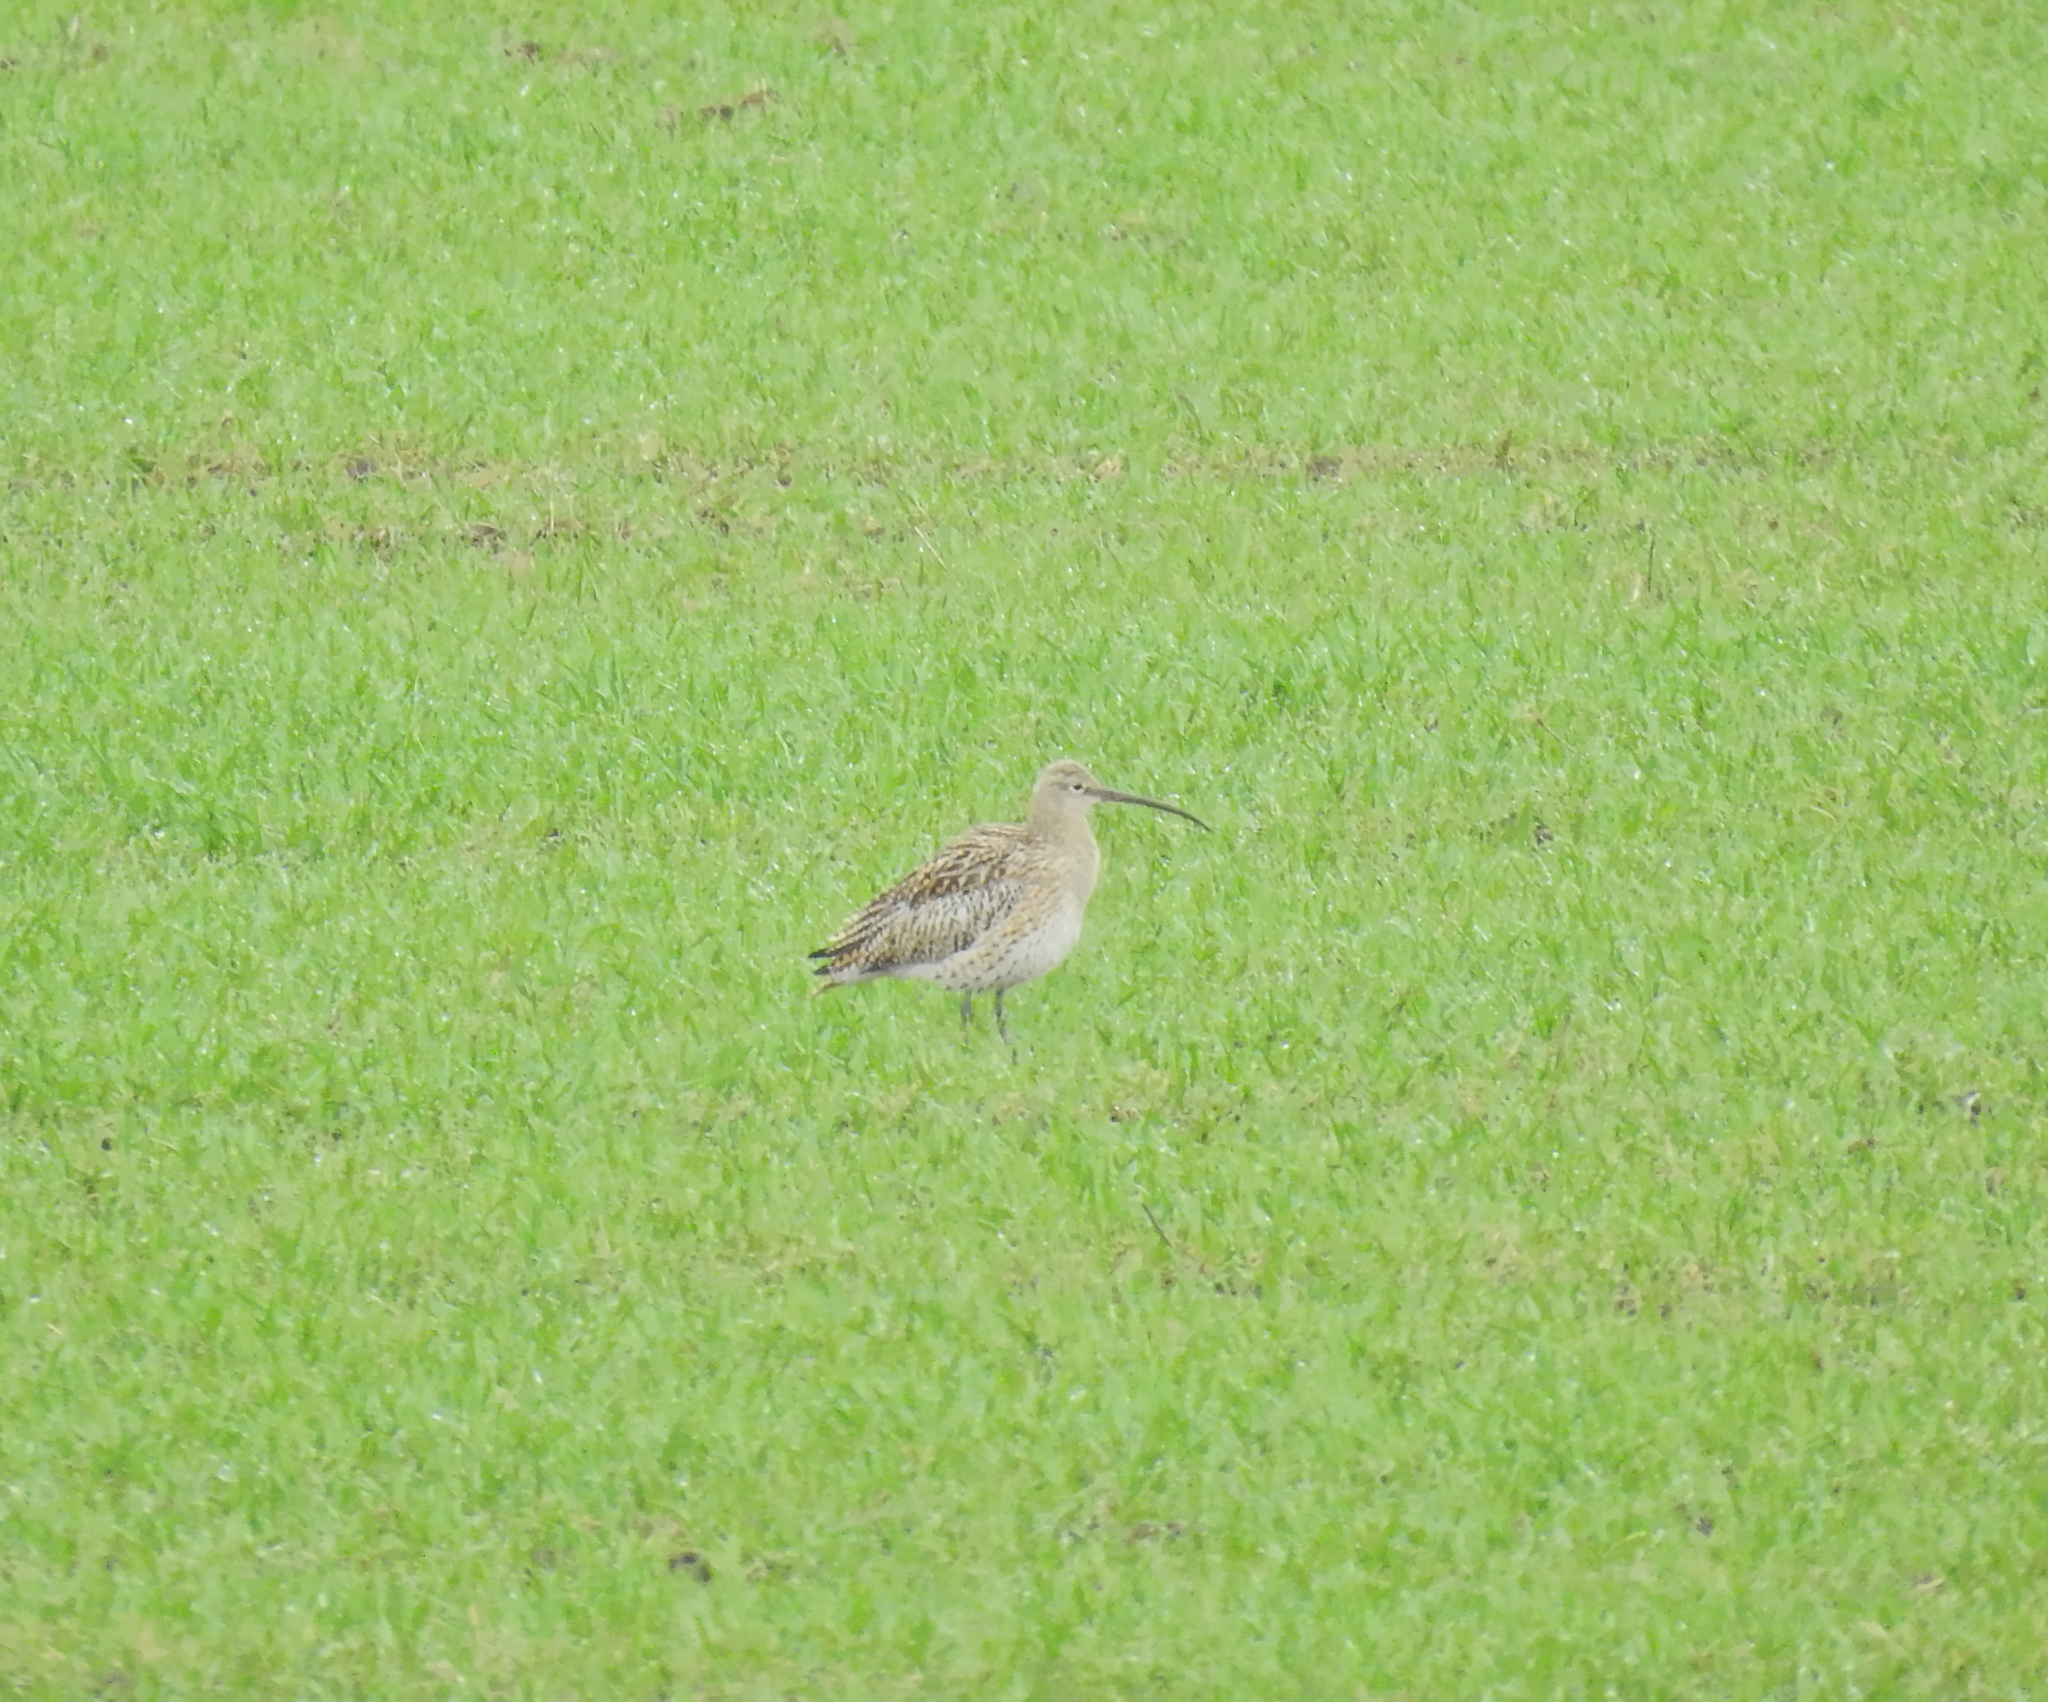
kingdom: Animalia
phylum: Chordata
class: Aves
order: Charadriiformes
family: Scolopacidae
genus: Numenius
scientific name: Numenius arquata
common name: Eurasian curlew
